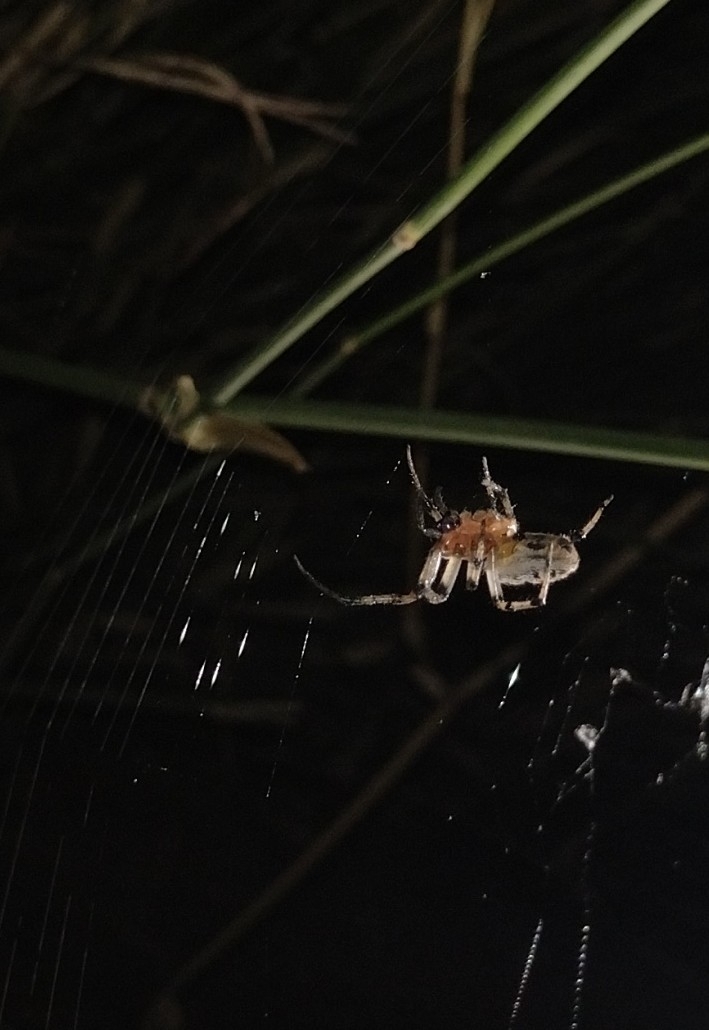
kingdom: Animalia
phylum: Arthropoda
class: Arachnida
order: Araneae
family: Araneidae
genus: Alpaida
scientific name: Alpaida veniliae
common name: Orb weavers
